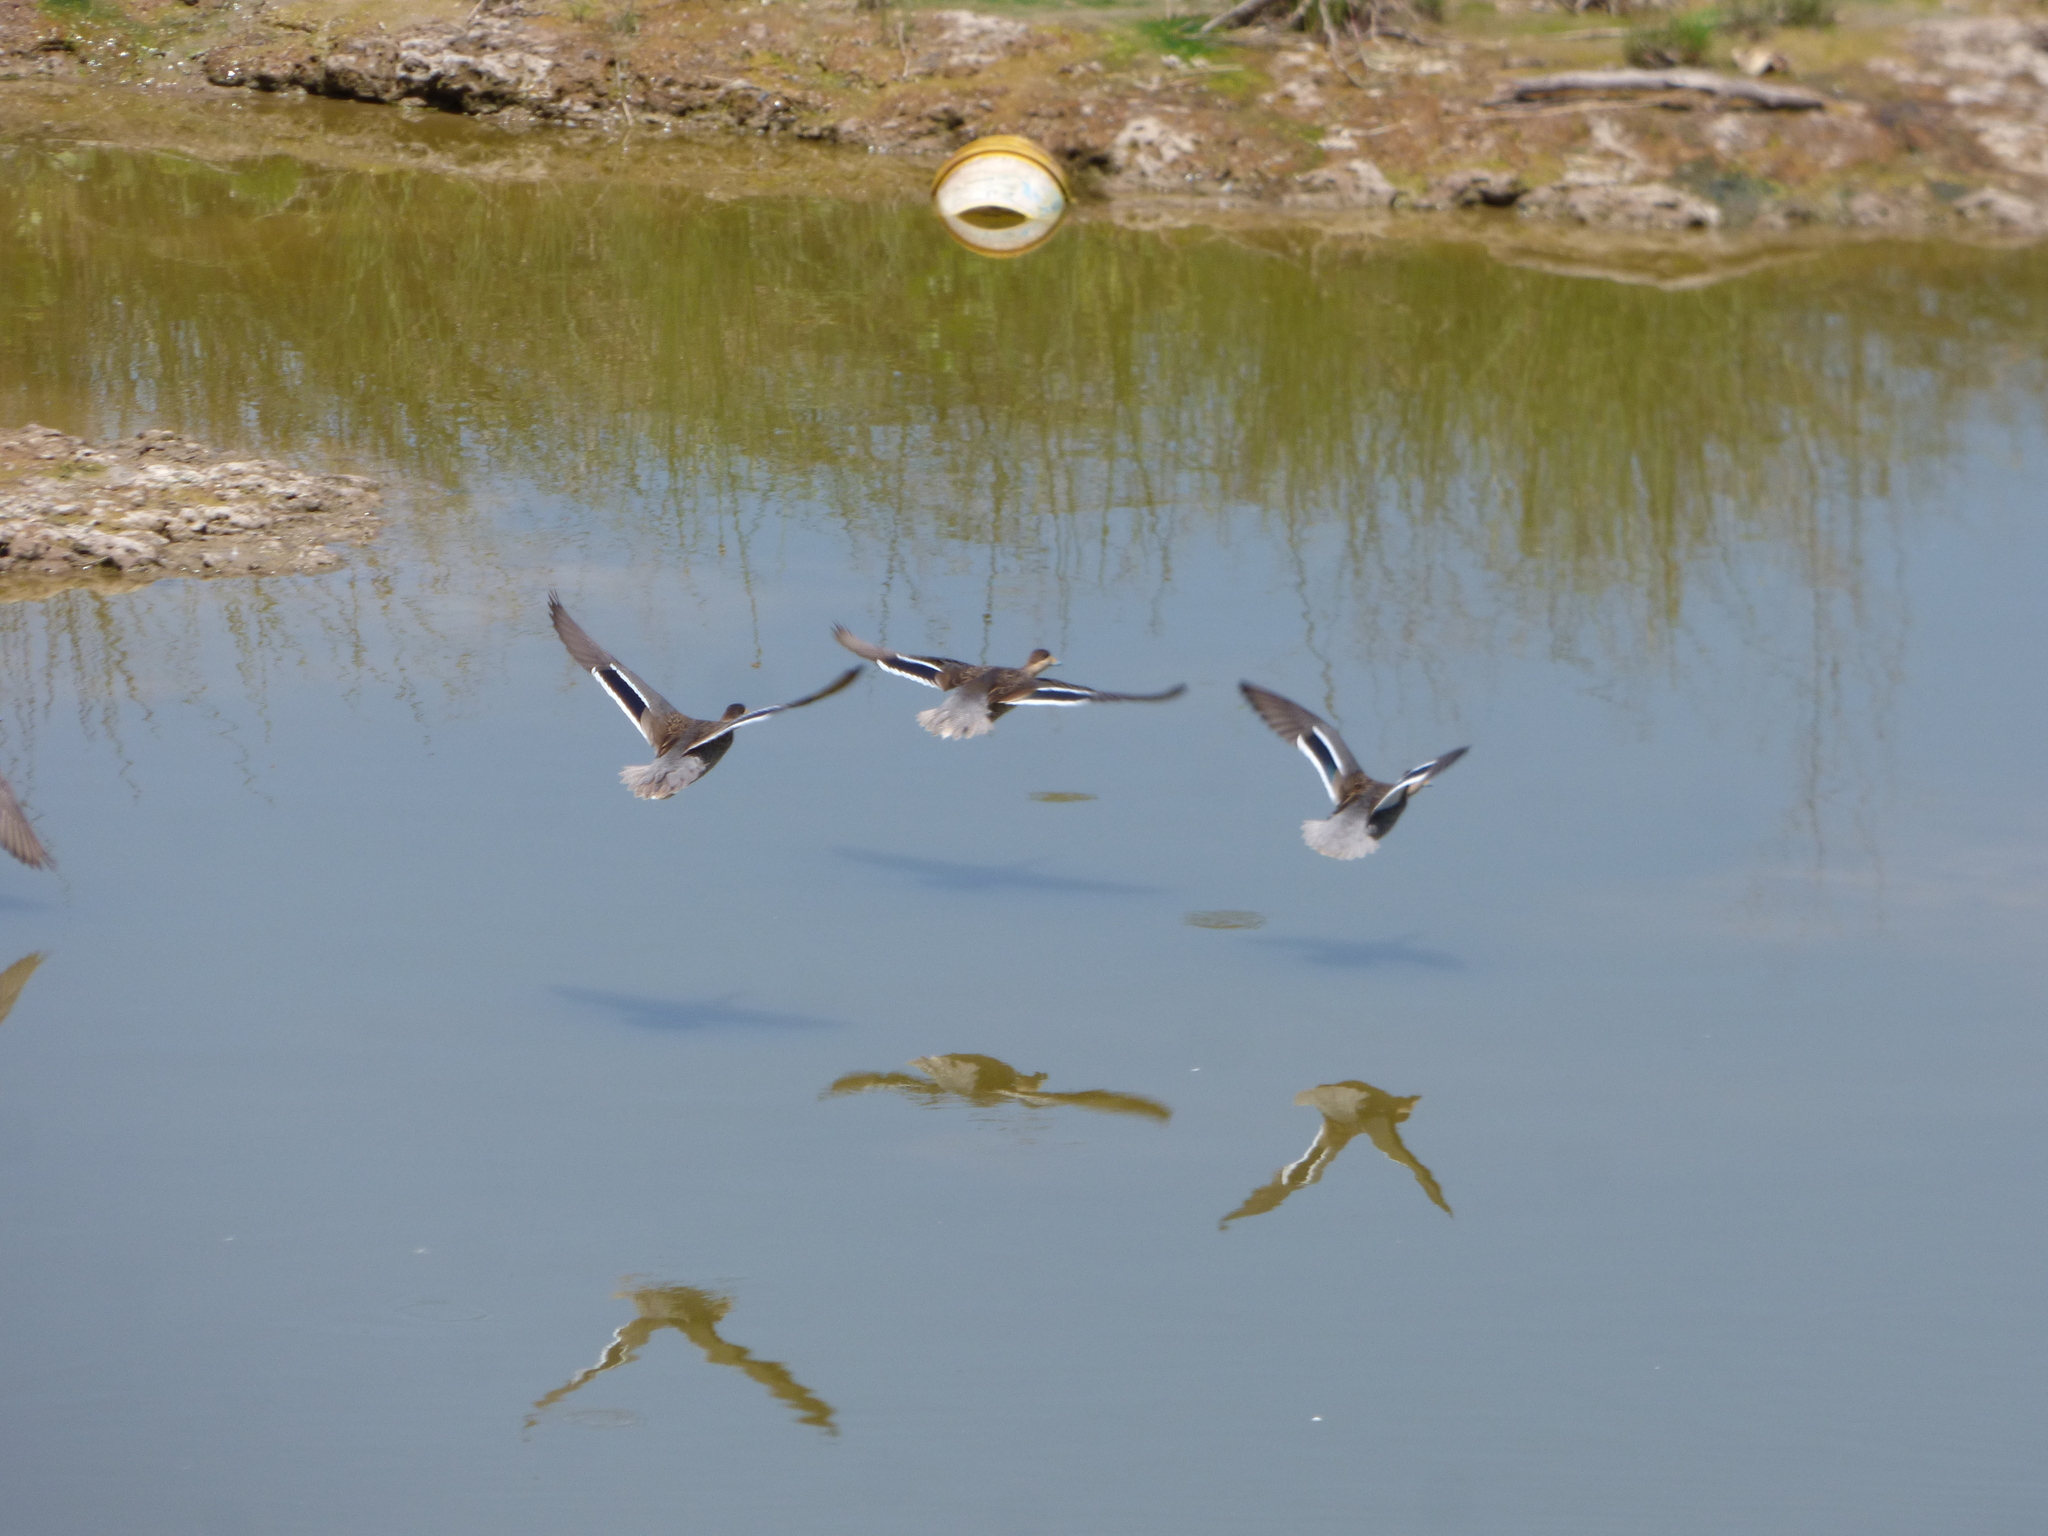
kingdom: Animalia
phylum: Chordata
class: Aves
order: Anseriformes
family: Anatidae
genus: Spatula
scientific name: Spatula versicolor
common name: Silver teal
